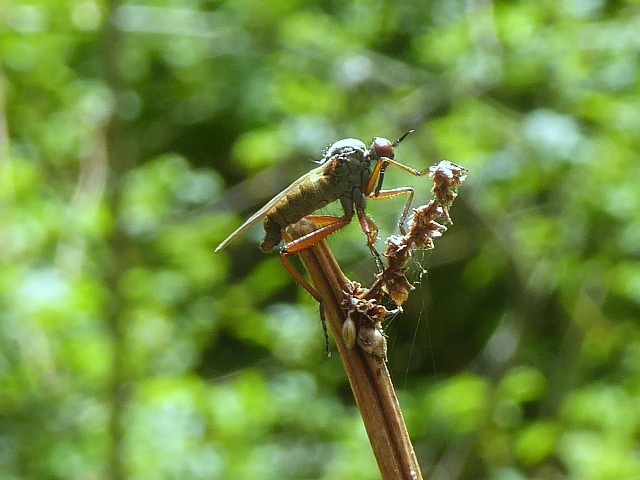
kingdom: Animalia
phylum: Arthropoda
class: Insecta
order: Diptera
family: Empididae
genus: Empis
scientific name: Empis spectabilis
